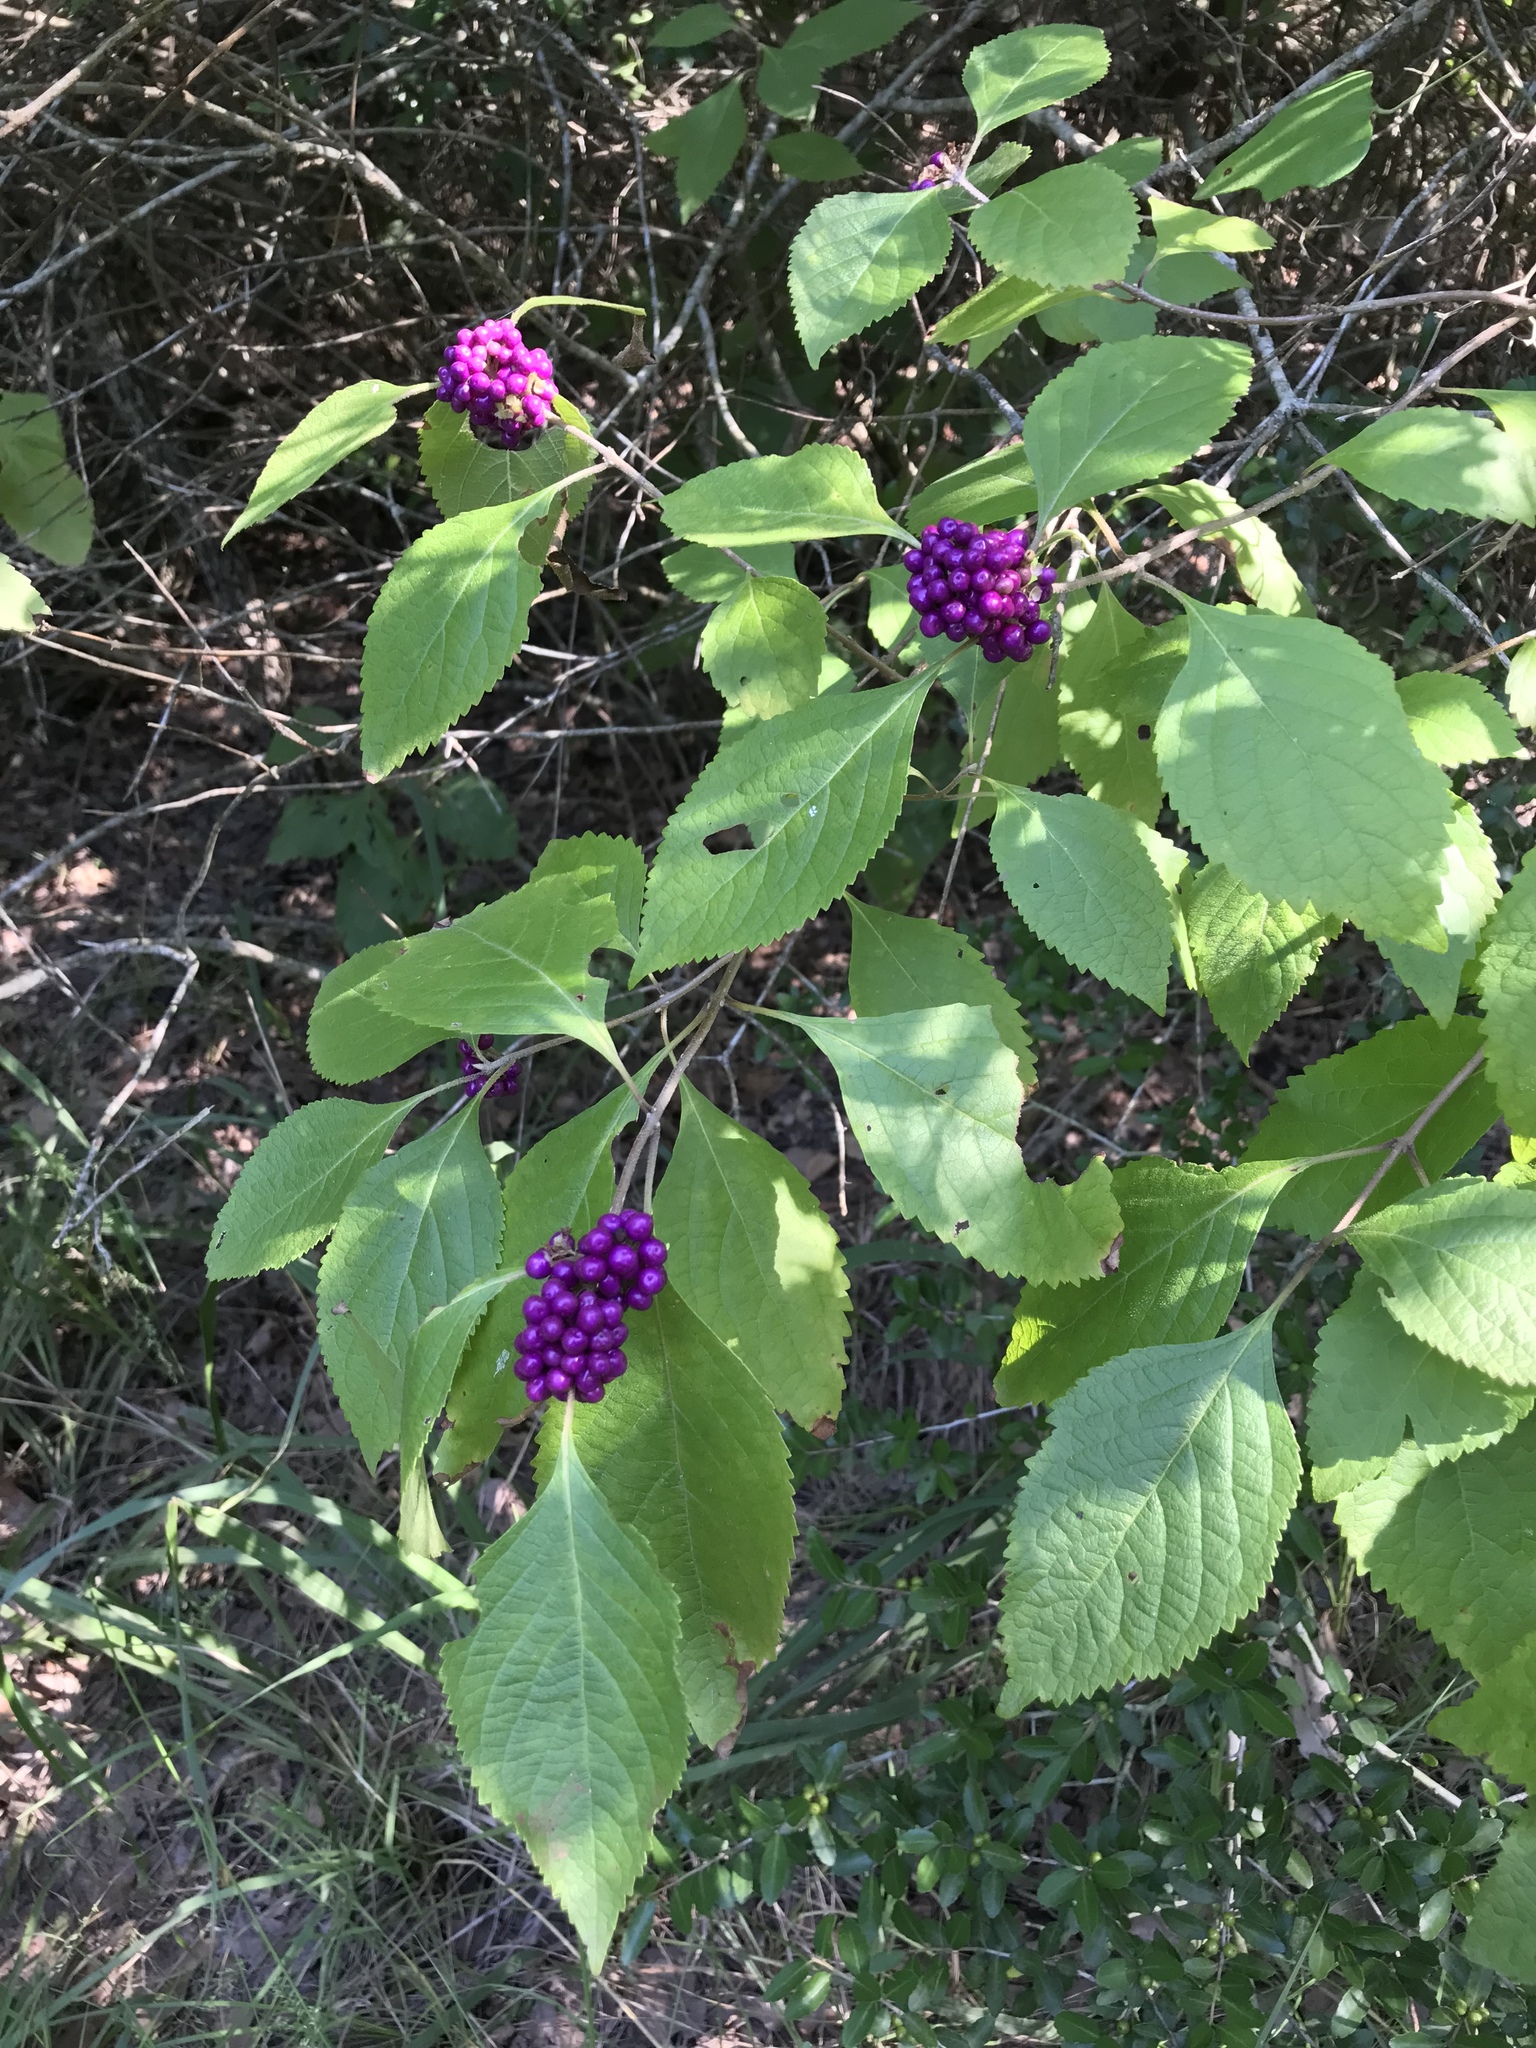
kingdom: Plantae
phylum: Tracheophyta
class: Magnoliopsida
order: Lamiales
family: Lamiaceae
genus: Callicarpa
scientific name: Callicarpa americana
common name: American beautyberry
